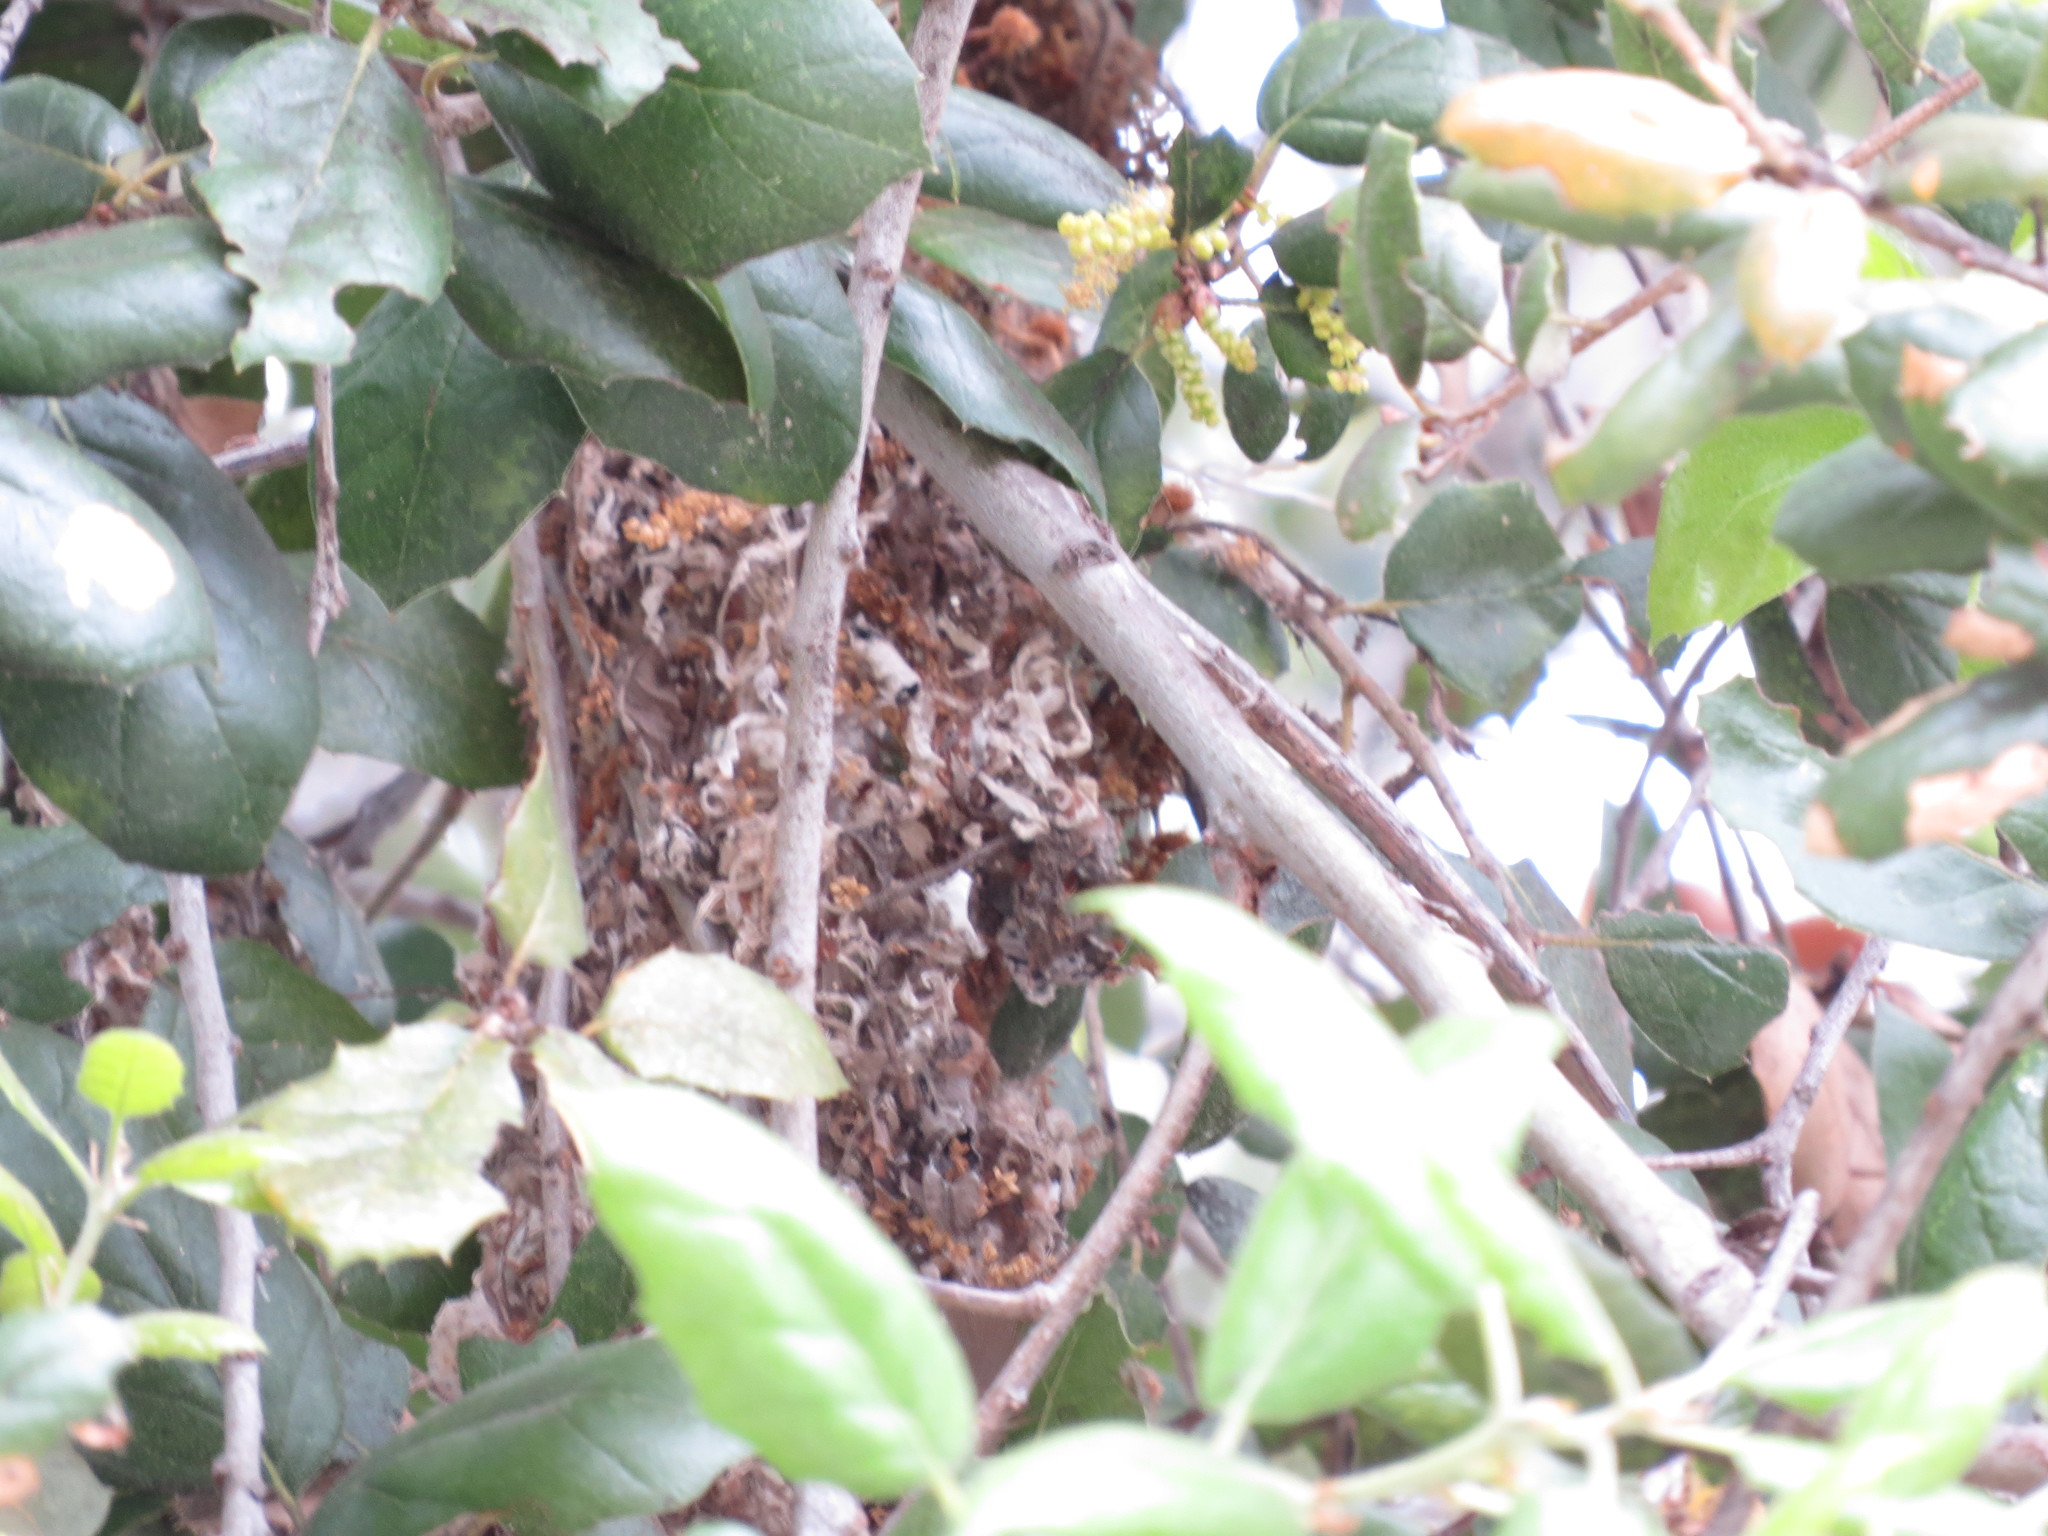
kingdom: Animalia
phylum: Chordata
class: Aves
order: Passeriformes
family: Aegithalidae
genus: Psaltriparus
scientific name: Psaltriparus minimus
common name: American bushtit
